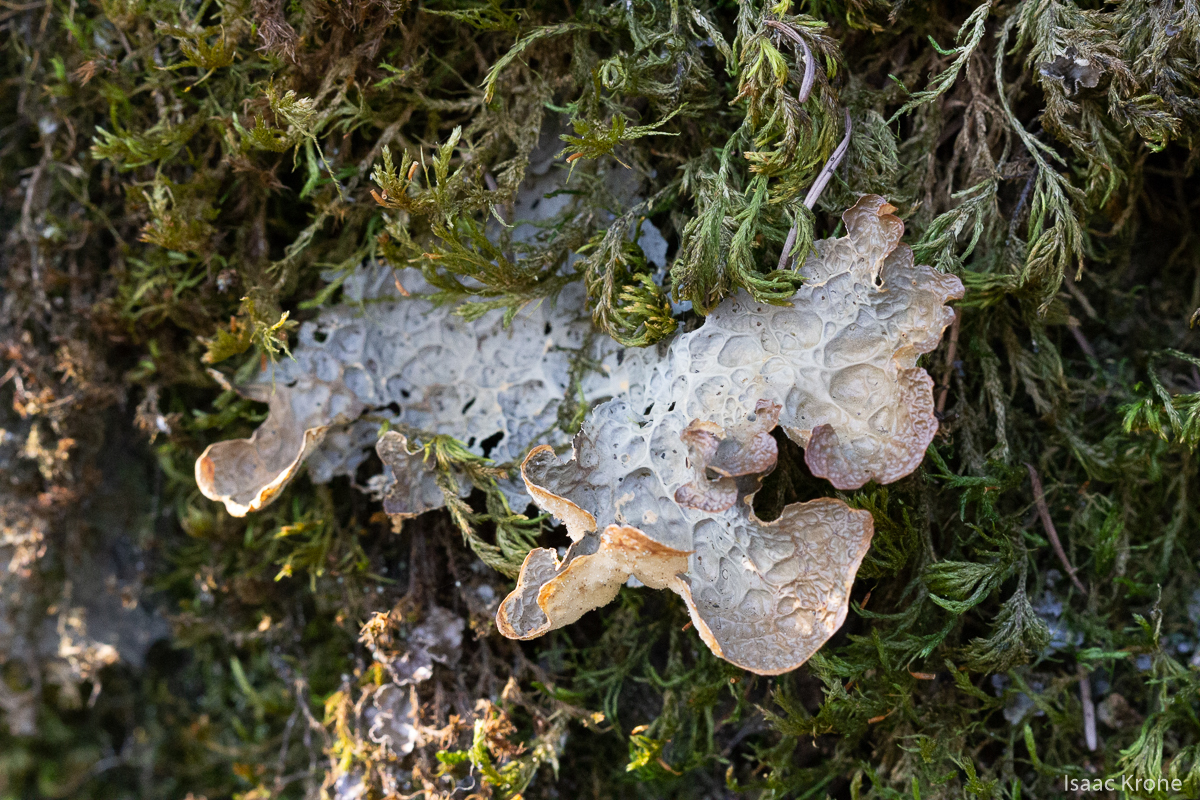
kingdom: Fungi
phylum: Ascomycota
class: Lecanoromycetes
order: Peltigerales
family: Lobariaceae
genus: Lobaria
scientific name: Lobaria anthraspis
